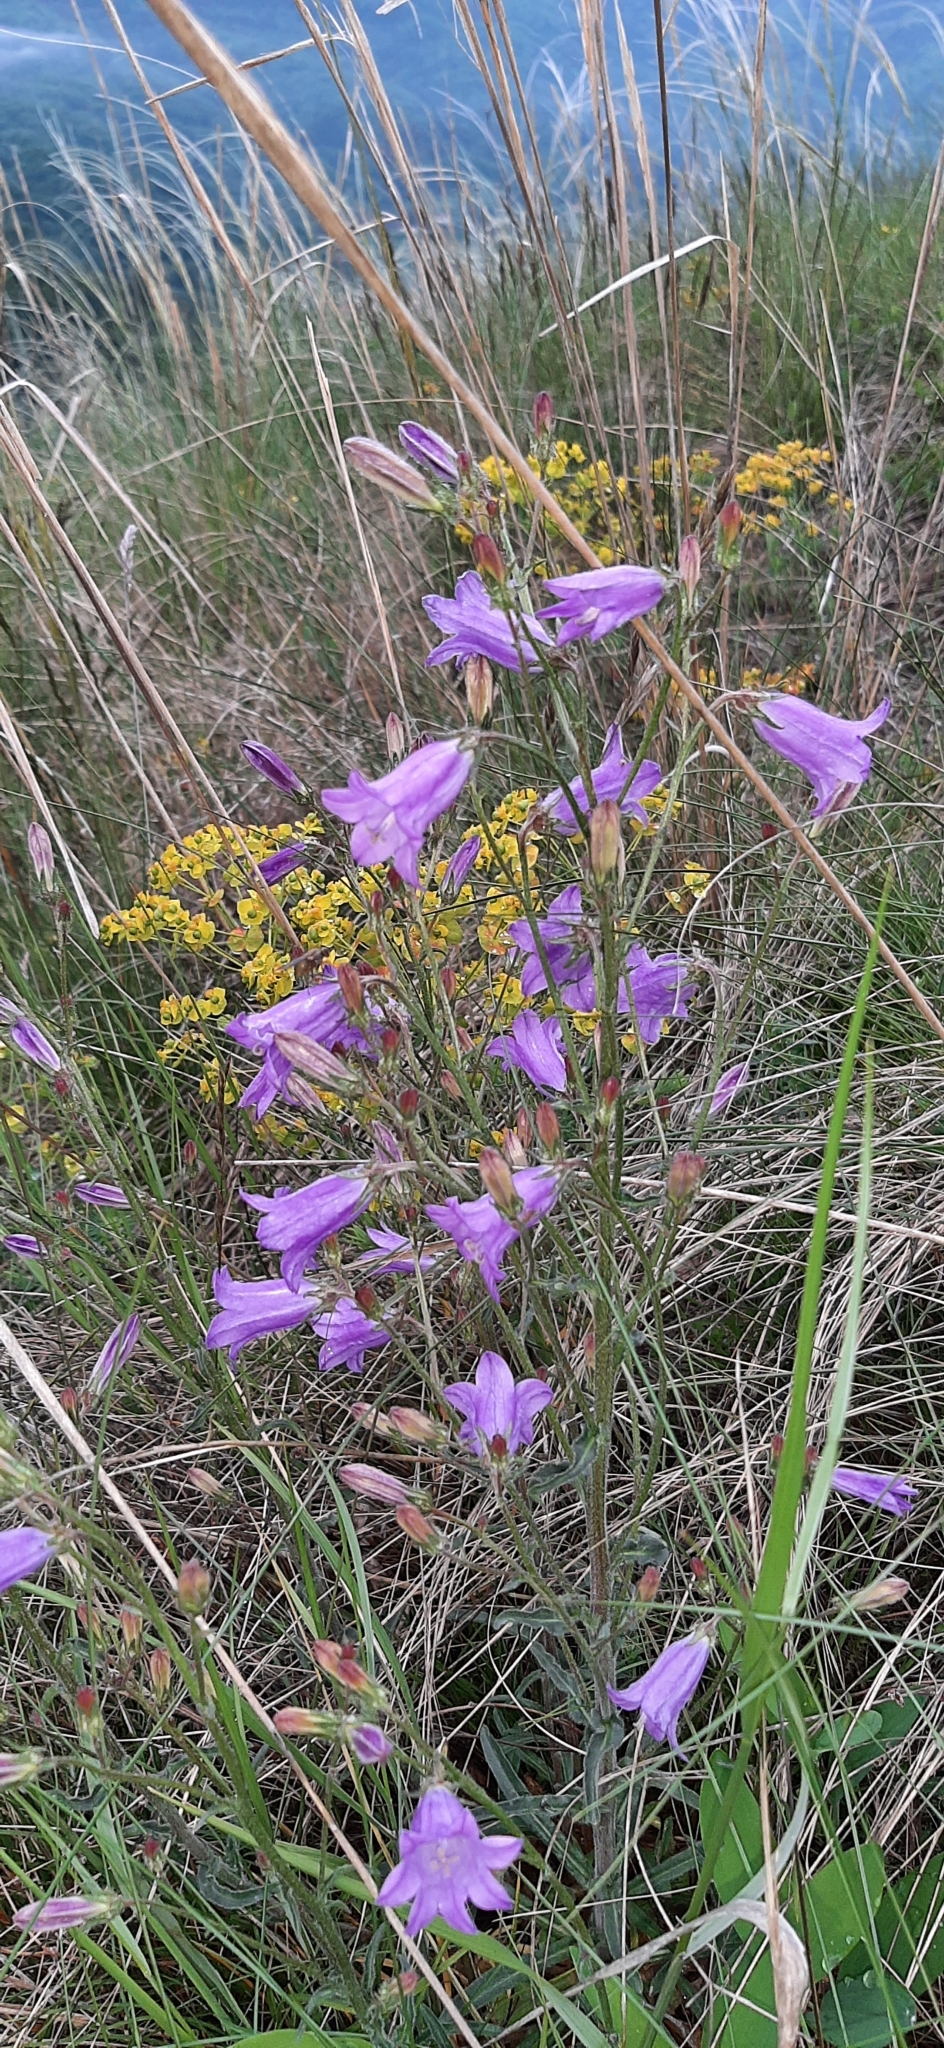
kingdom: Plantae
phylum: Tracheophyta
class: Magnoliopsida
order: Asterales
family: Campanulaceae
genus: Campanula
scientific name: Campanula sibirica
